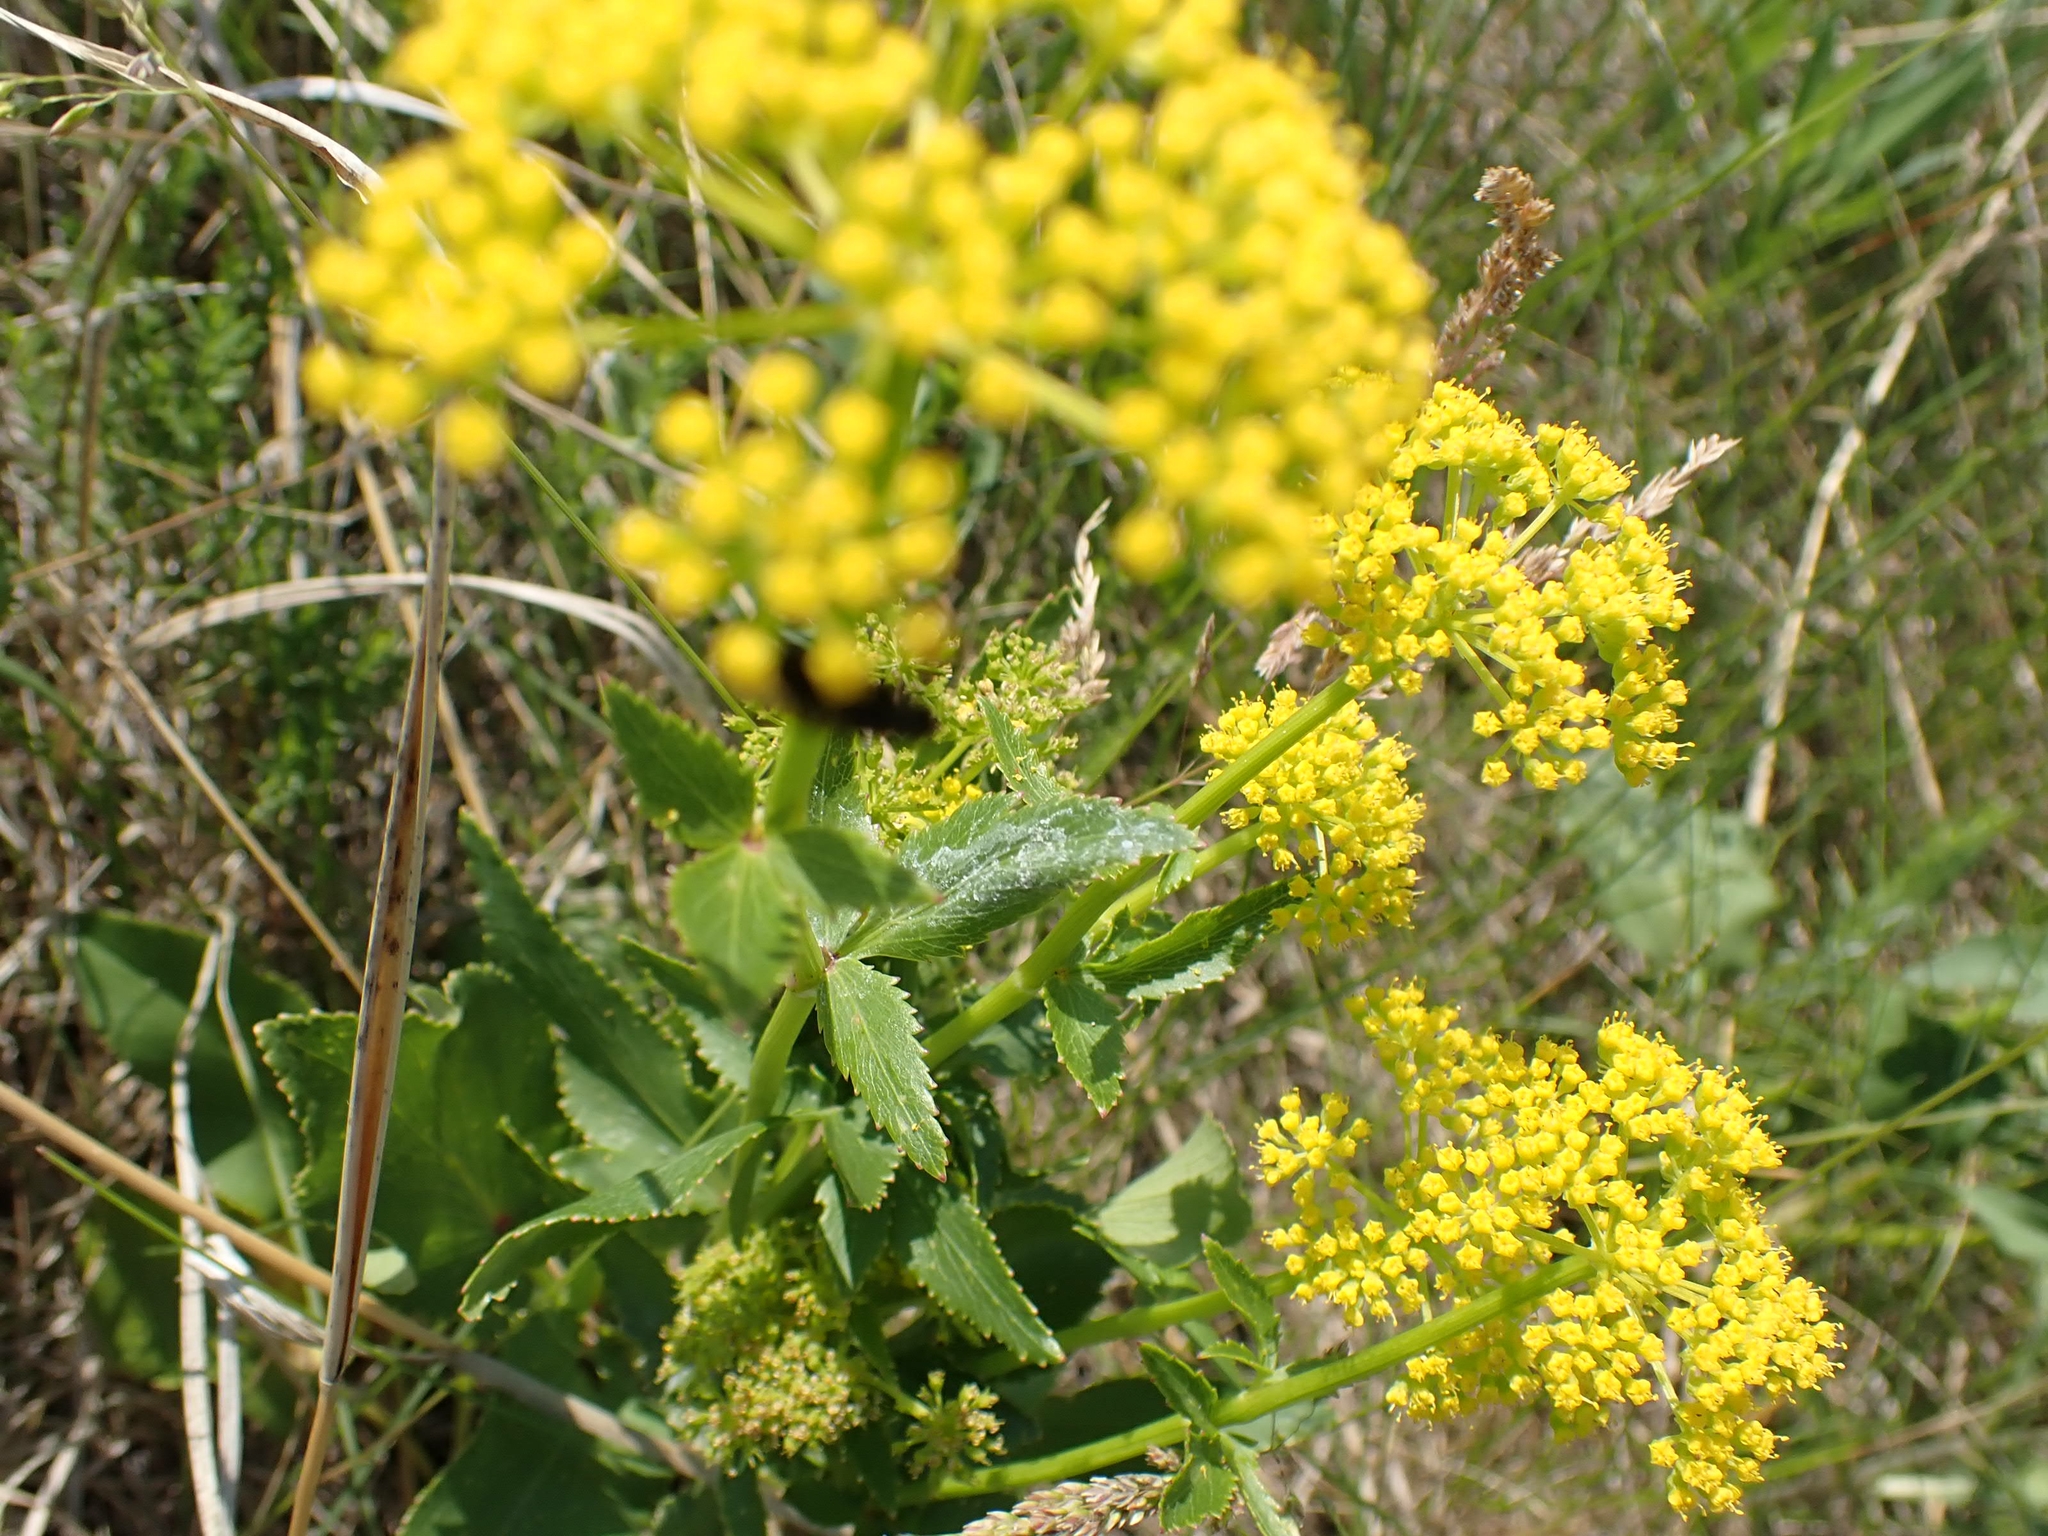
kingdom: Plantae
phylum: Tracheophyta
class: Magnoliopsida
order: Apiales
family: Apiaceae
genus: Zizia
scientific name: Zizia aptera
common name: Heart-leaved alexanders
